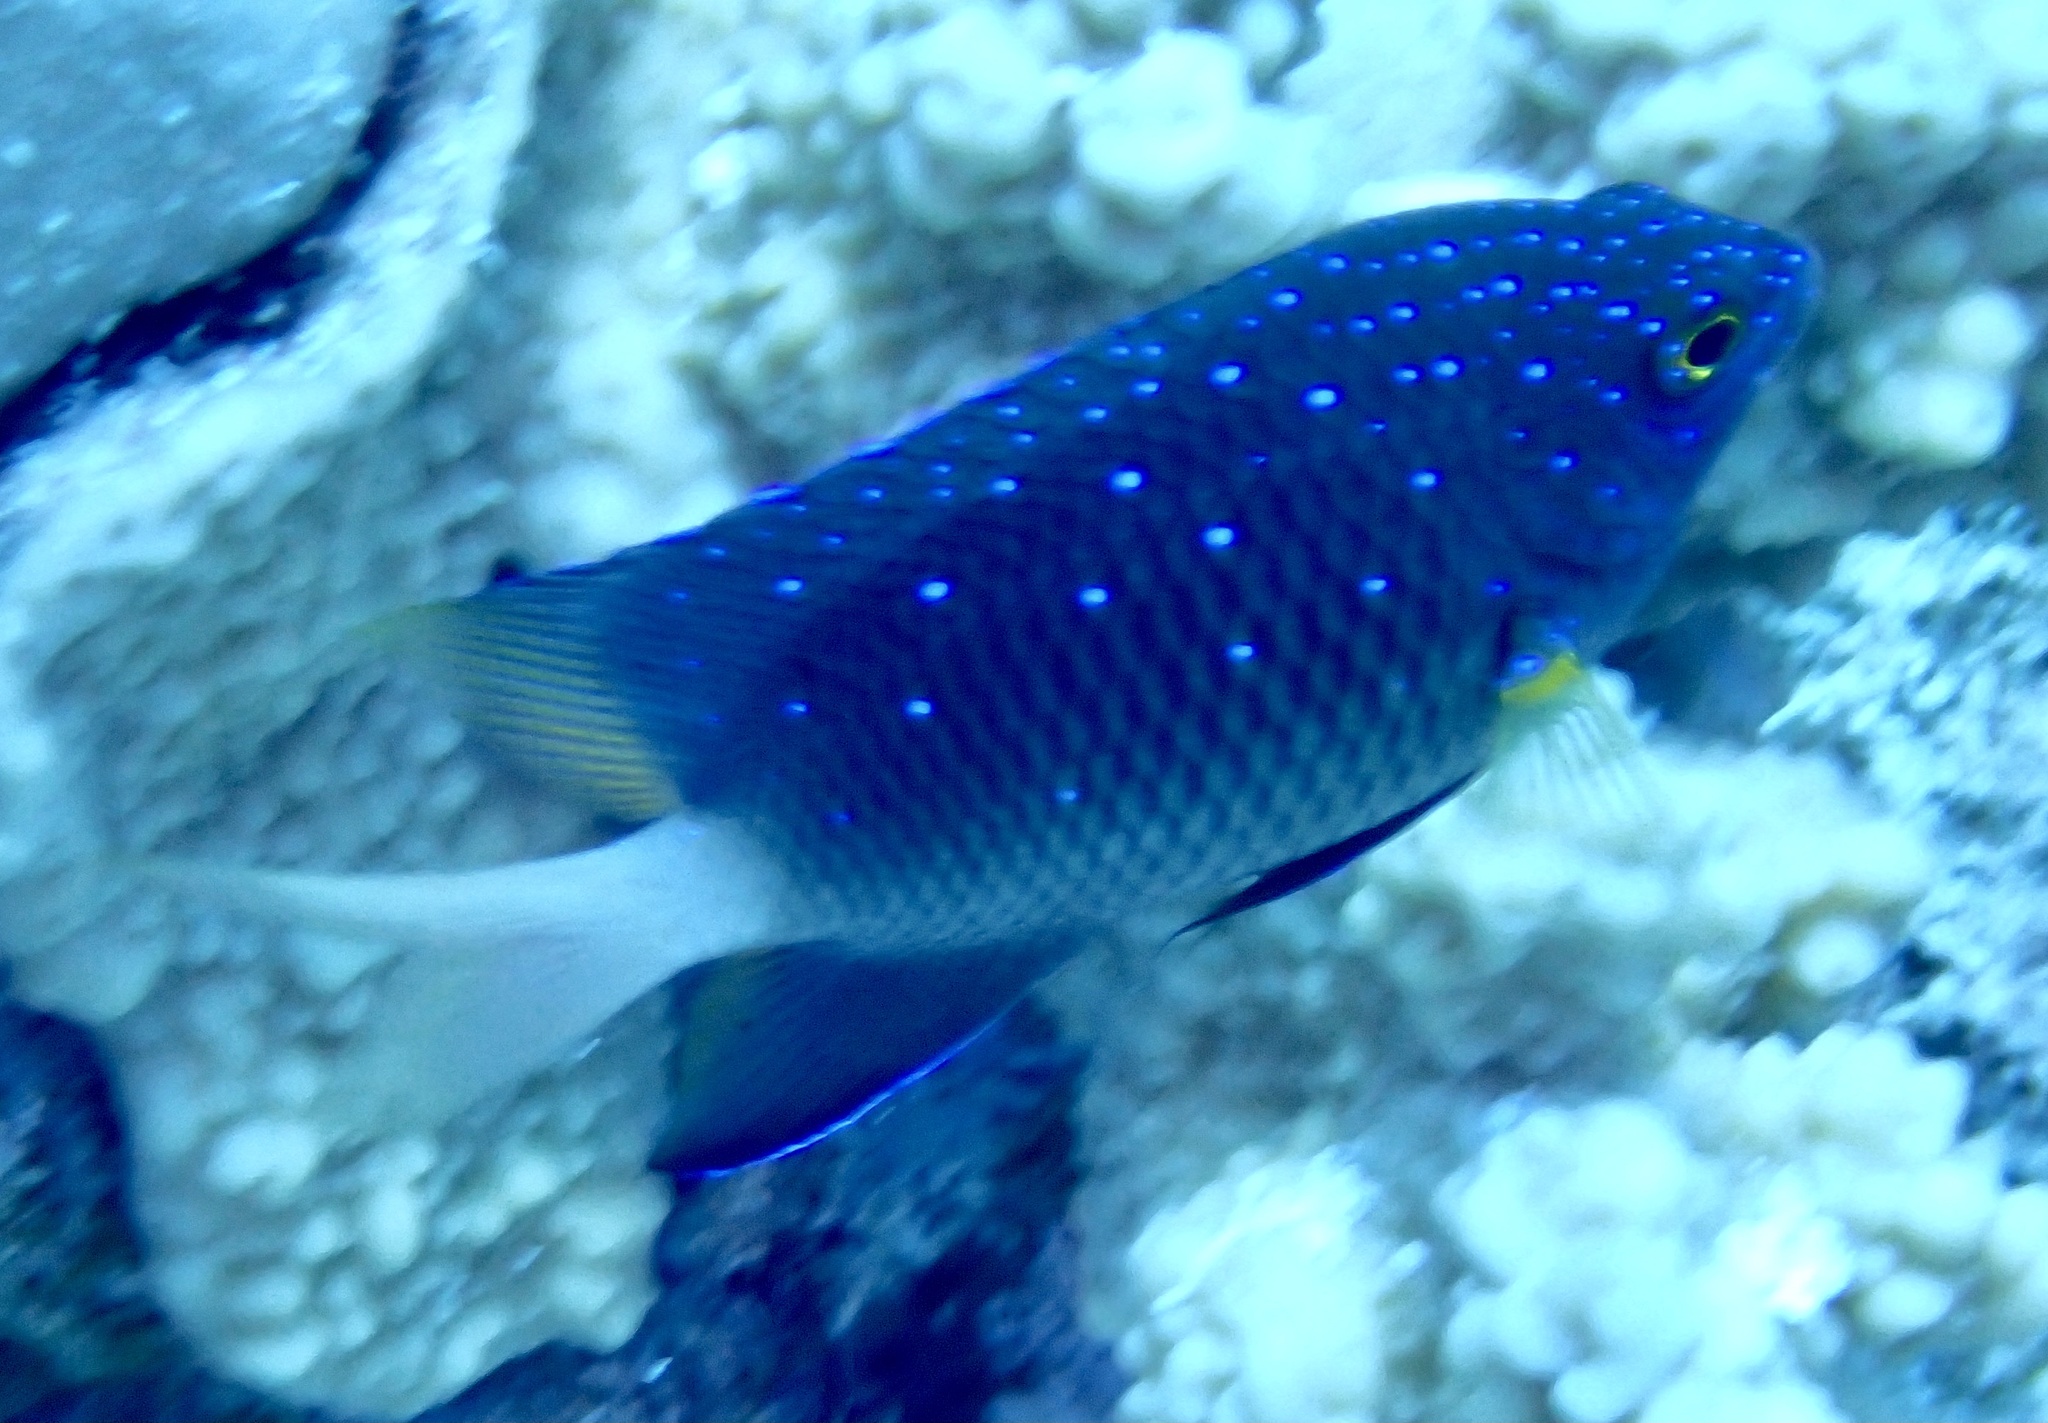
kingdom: Animalia
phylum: Chordata
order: Perciformes
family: Pomacentridae
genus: Plectroglyphidodon
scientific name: Plectroglyphidodon lacrymatus
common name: Jewel damsel
